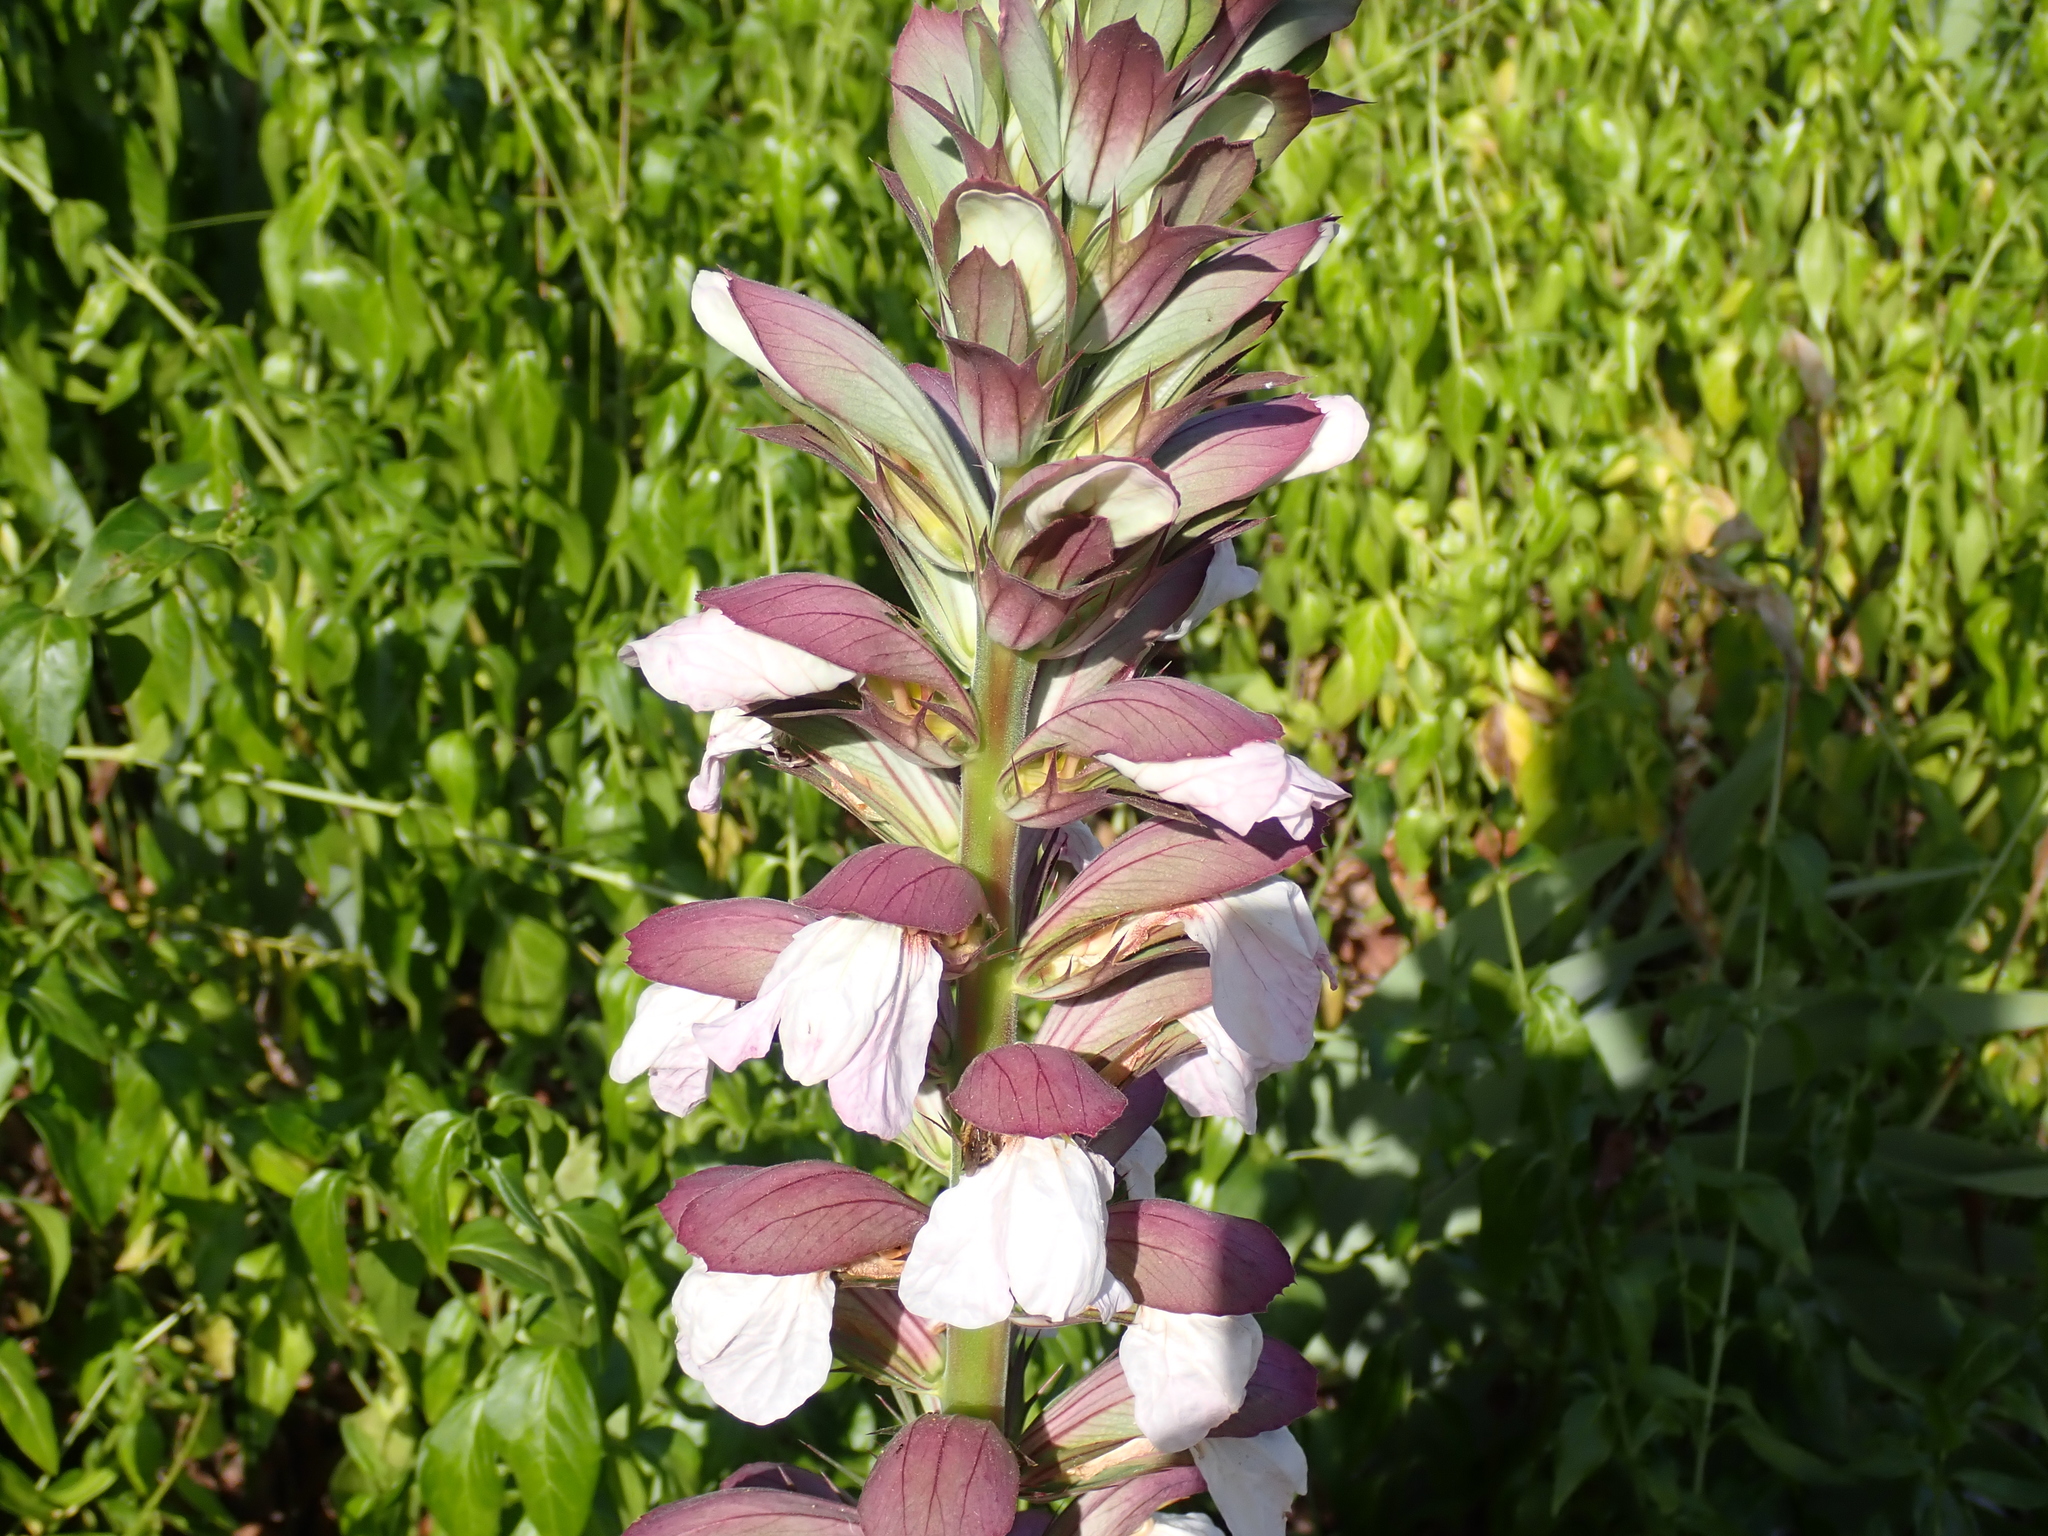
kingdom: Plantae
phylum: Tracheophyta
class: Magnoliopsida
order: Lamiales
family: Acanthaceae
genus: Acanthus
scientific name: Acanthus mollis
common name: Bear's-breech
